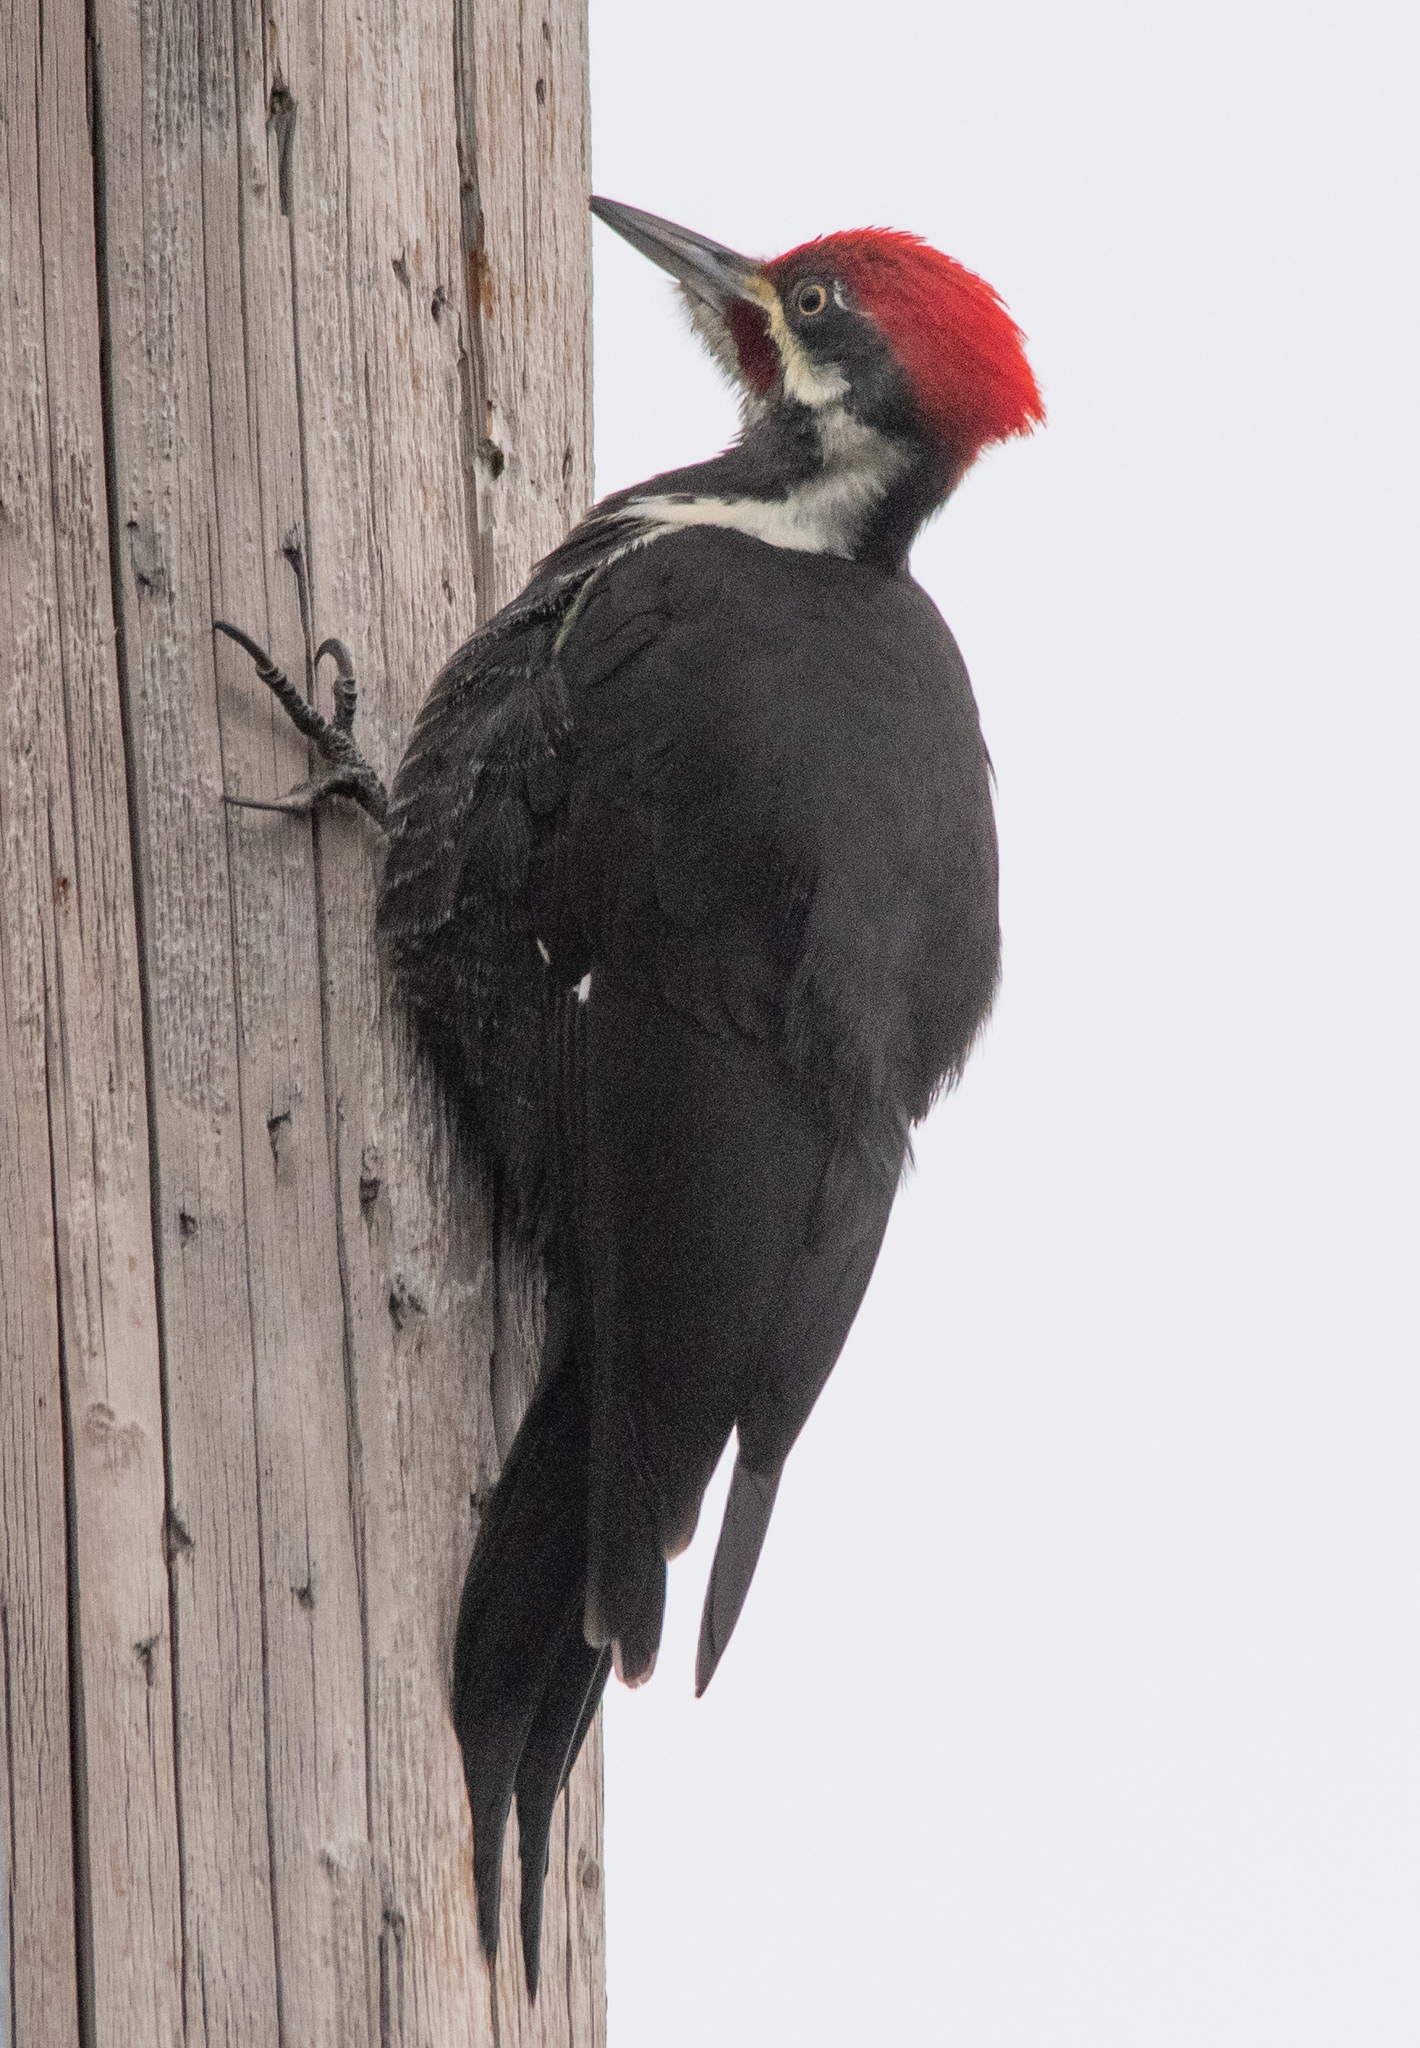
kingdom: Animalia
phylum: Chordata
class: Aves
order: Piciformes
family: Picidae
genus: Dryocopus
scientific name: Dryocopus pileatus
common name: Pileated woodpecker
